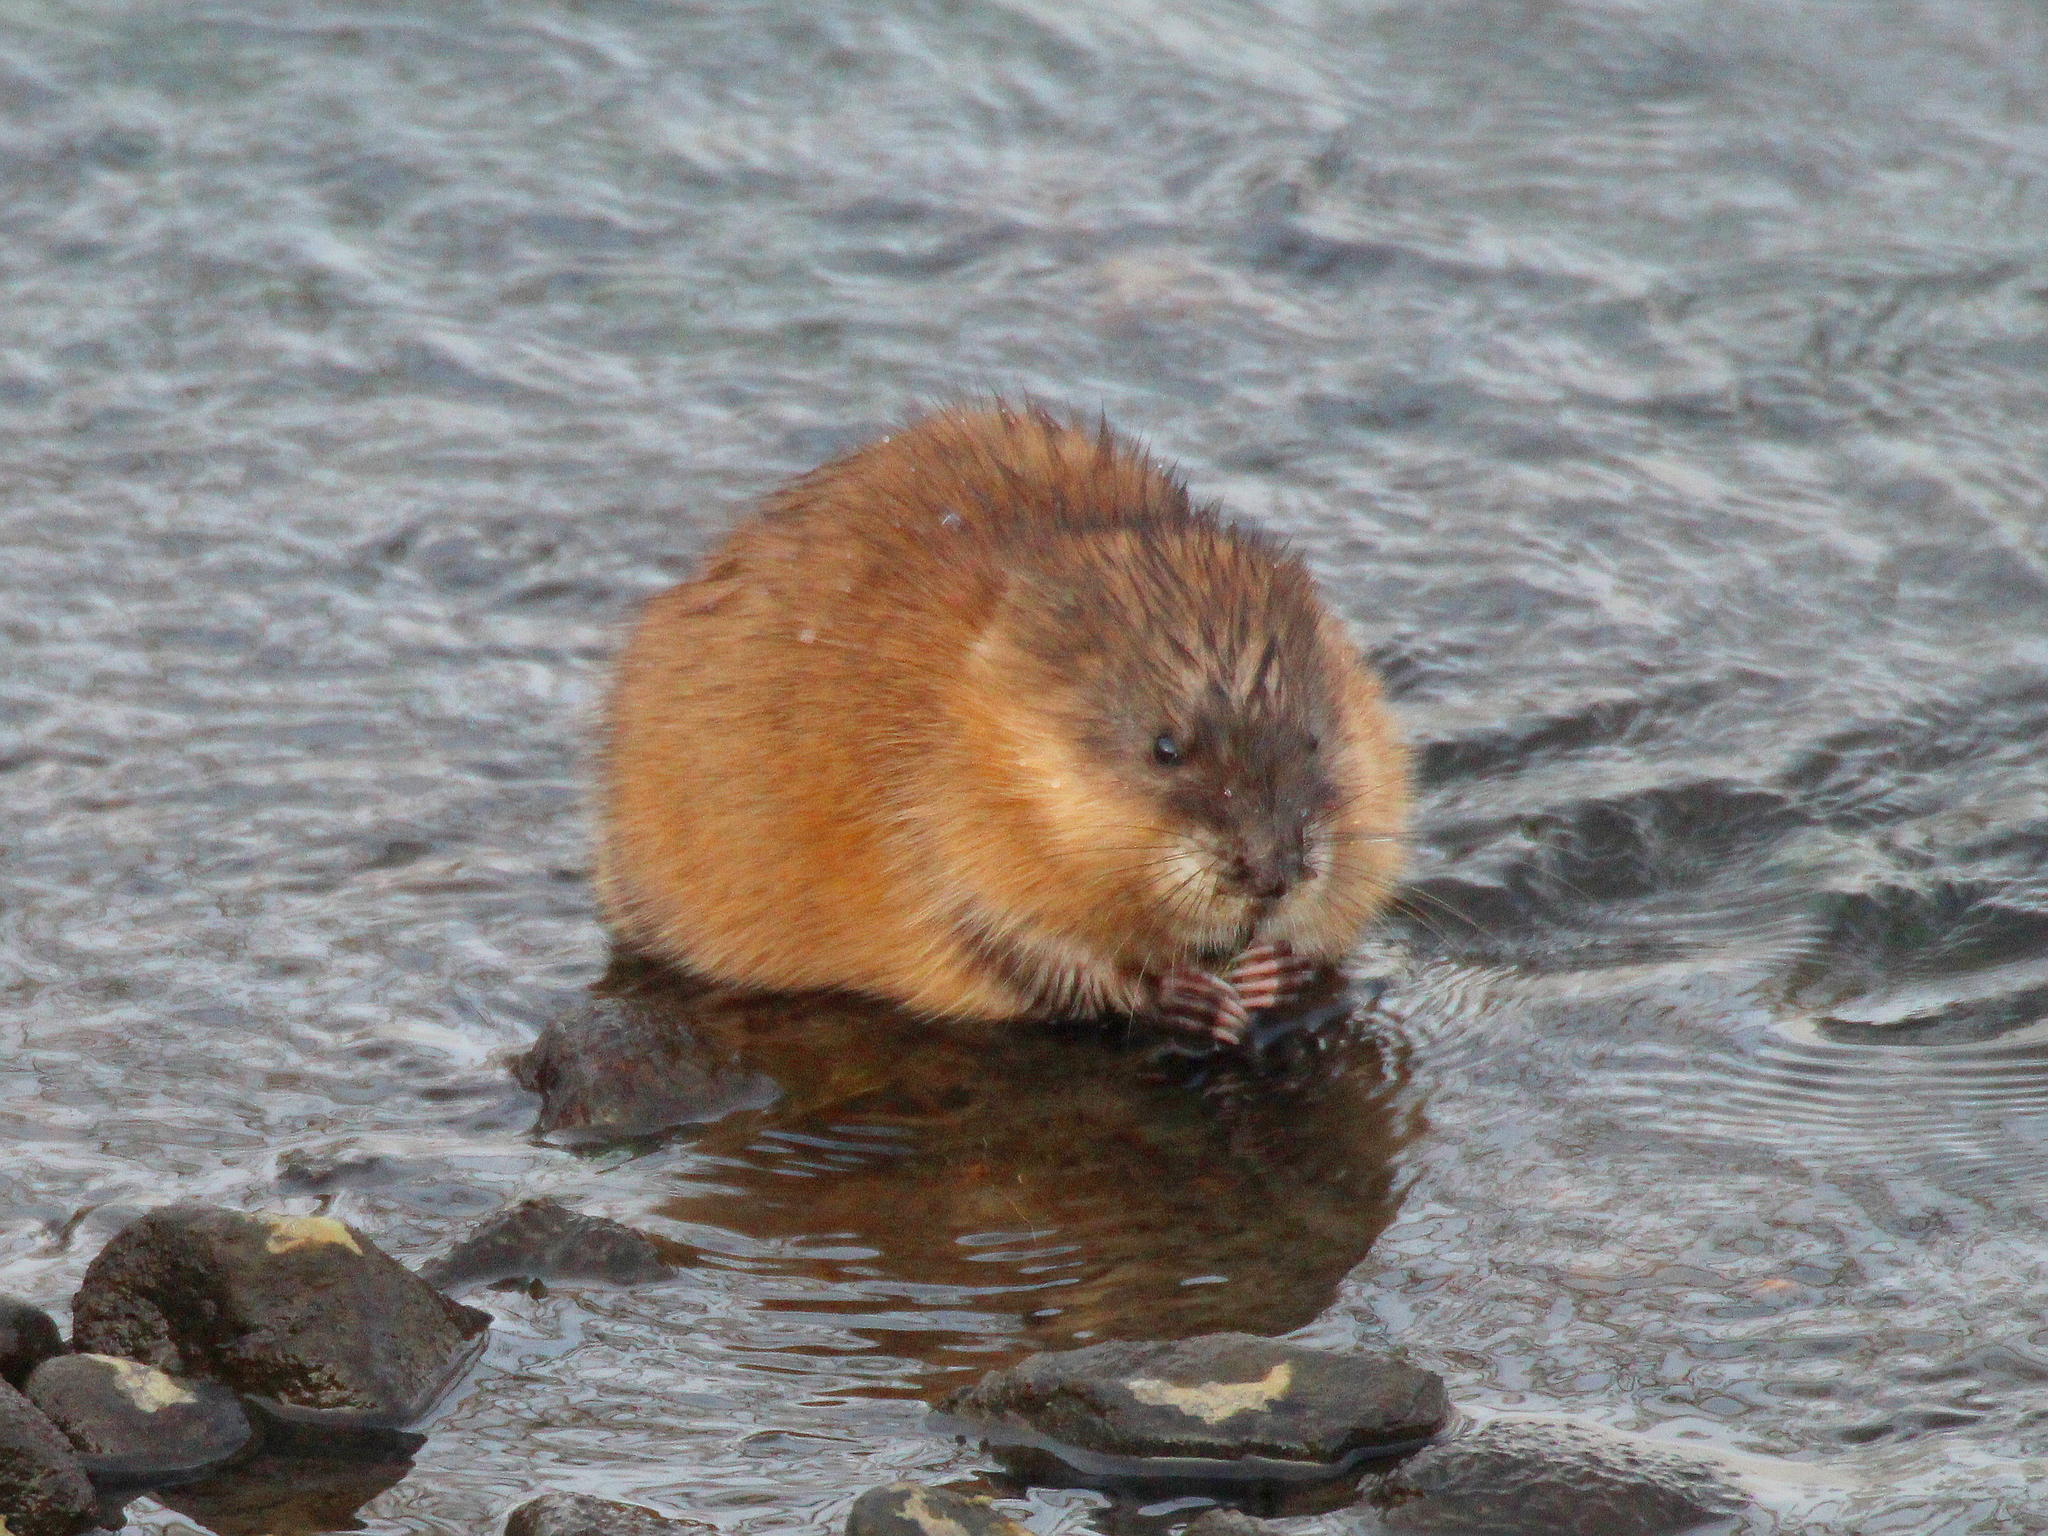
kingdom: Animalia
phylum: Chordata
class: Mammalia
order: Rodentia
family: Cricetidae
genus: Ondatra
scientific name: Ondatra zibethicus
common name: Muskrat
